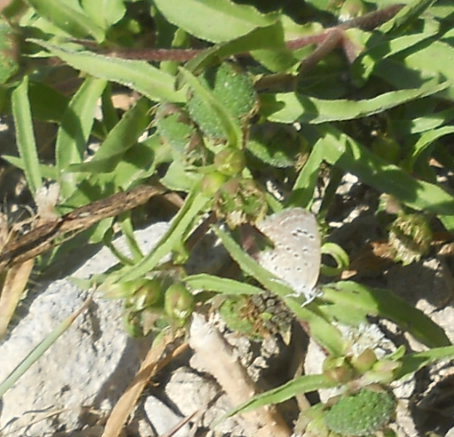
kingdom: Animalia
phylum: Arthropoda
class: Insecta
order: Lepidoptera
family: Lycaenidae
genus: Zizeeria
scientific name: Zizeeria karsandra
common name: Dark grass blue
